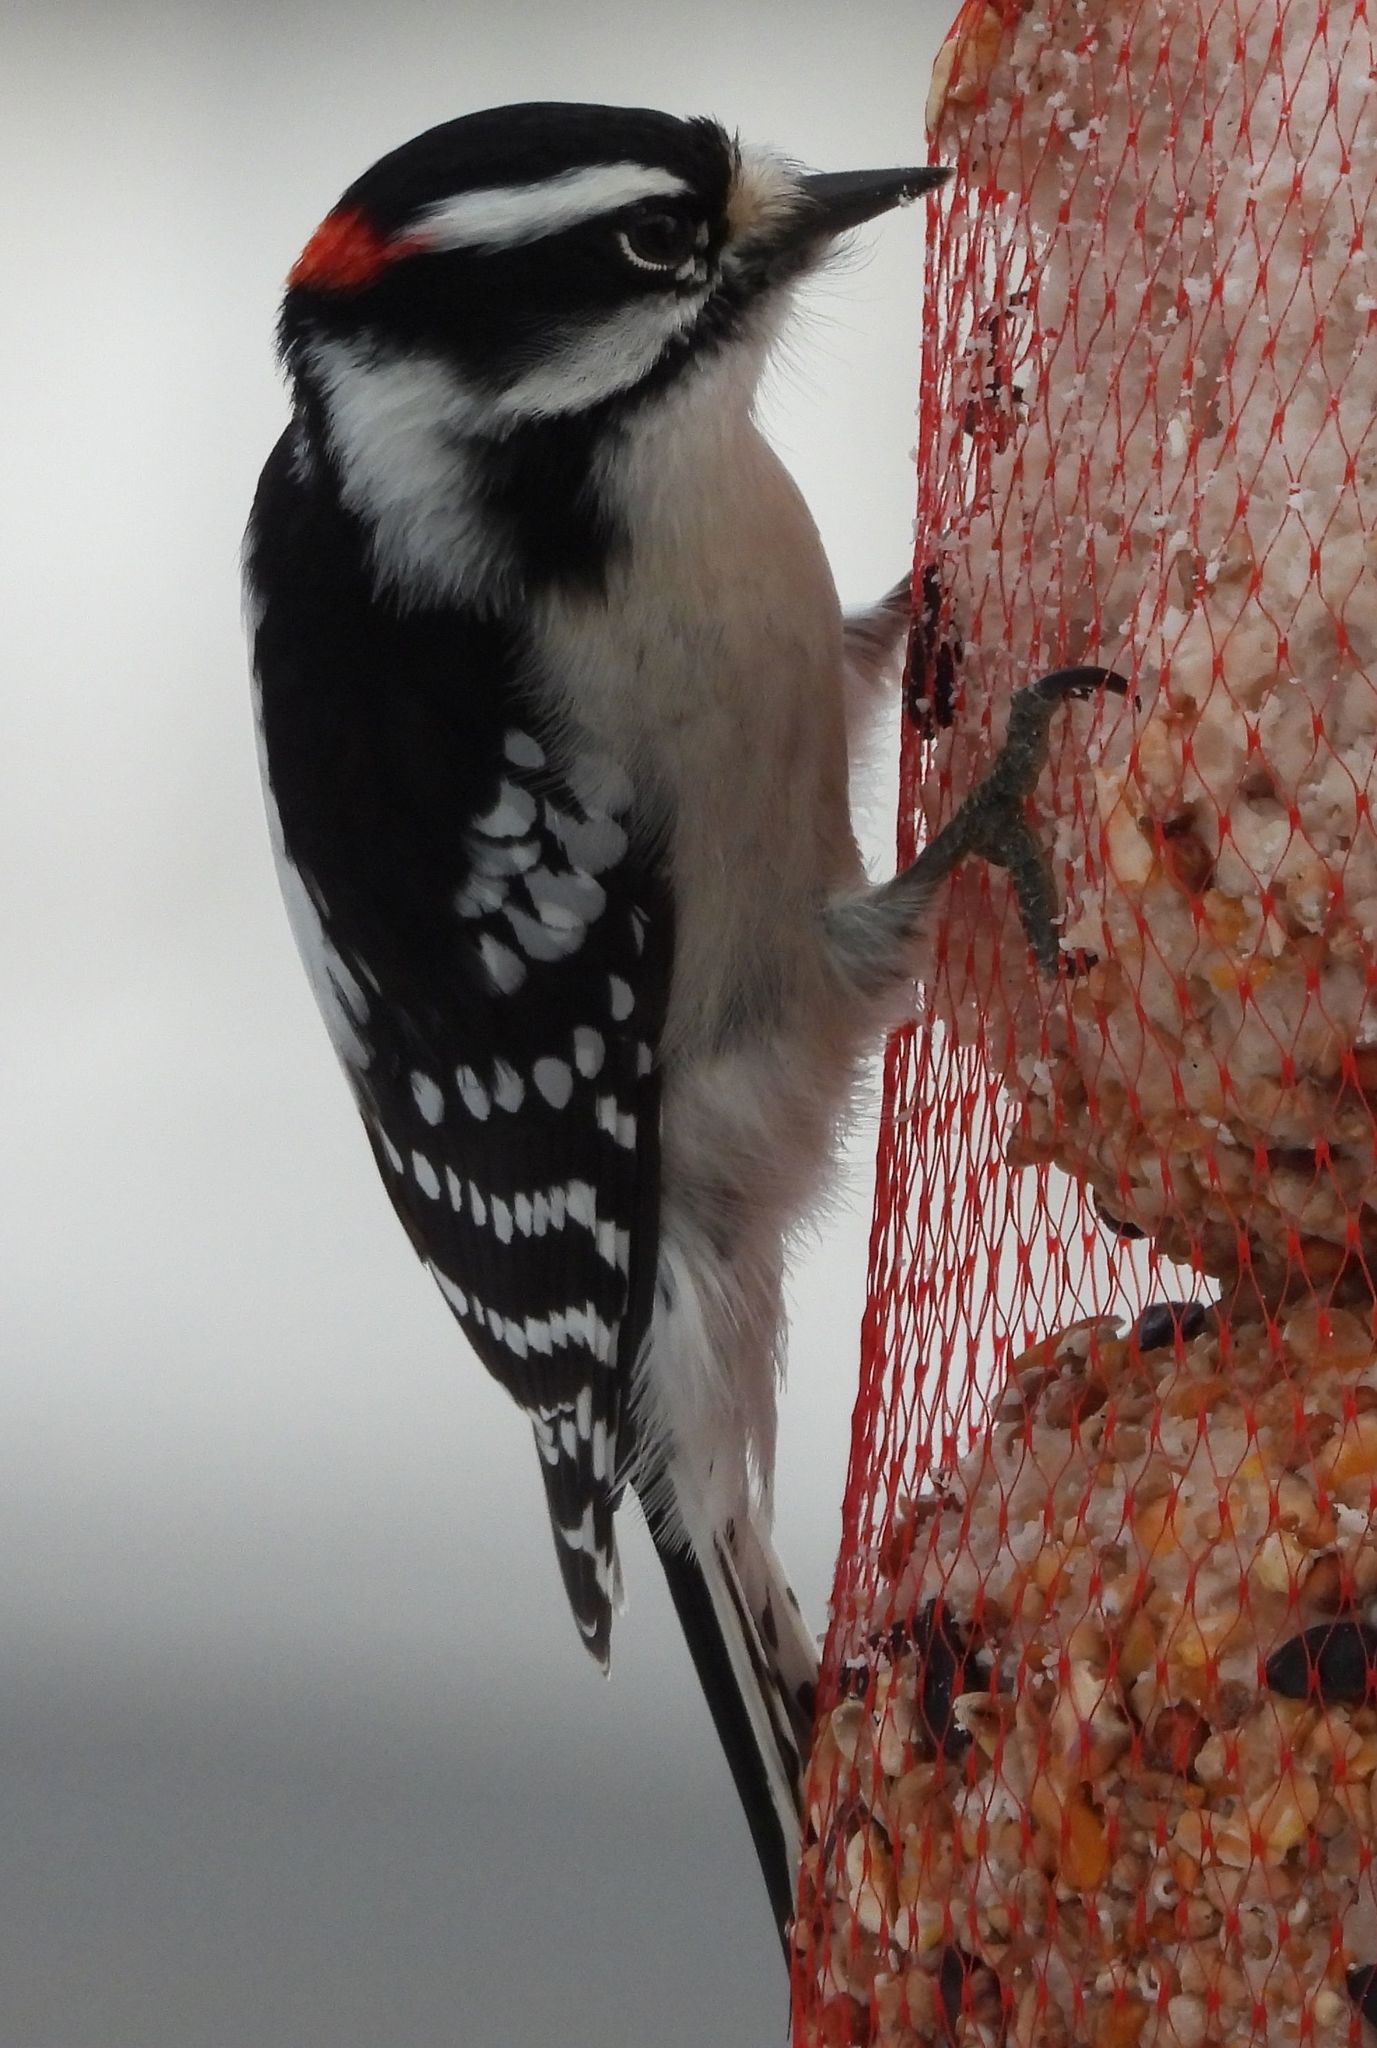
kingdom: Animalia
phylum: Chordata
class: Aves
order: Piciformes
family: Picidae
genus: Dryobates
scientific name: Dryobates pubescens
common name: Downy woodpecker
